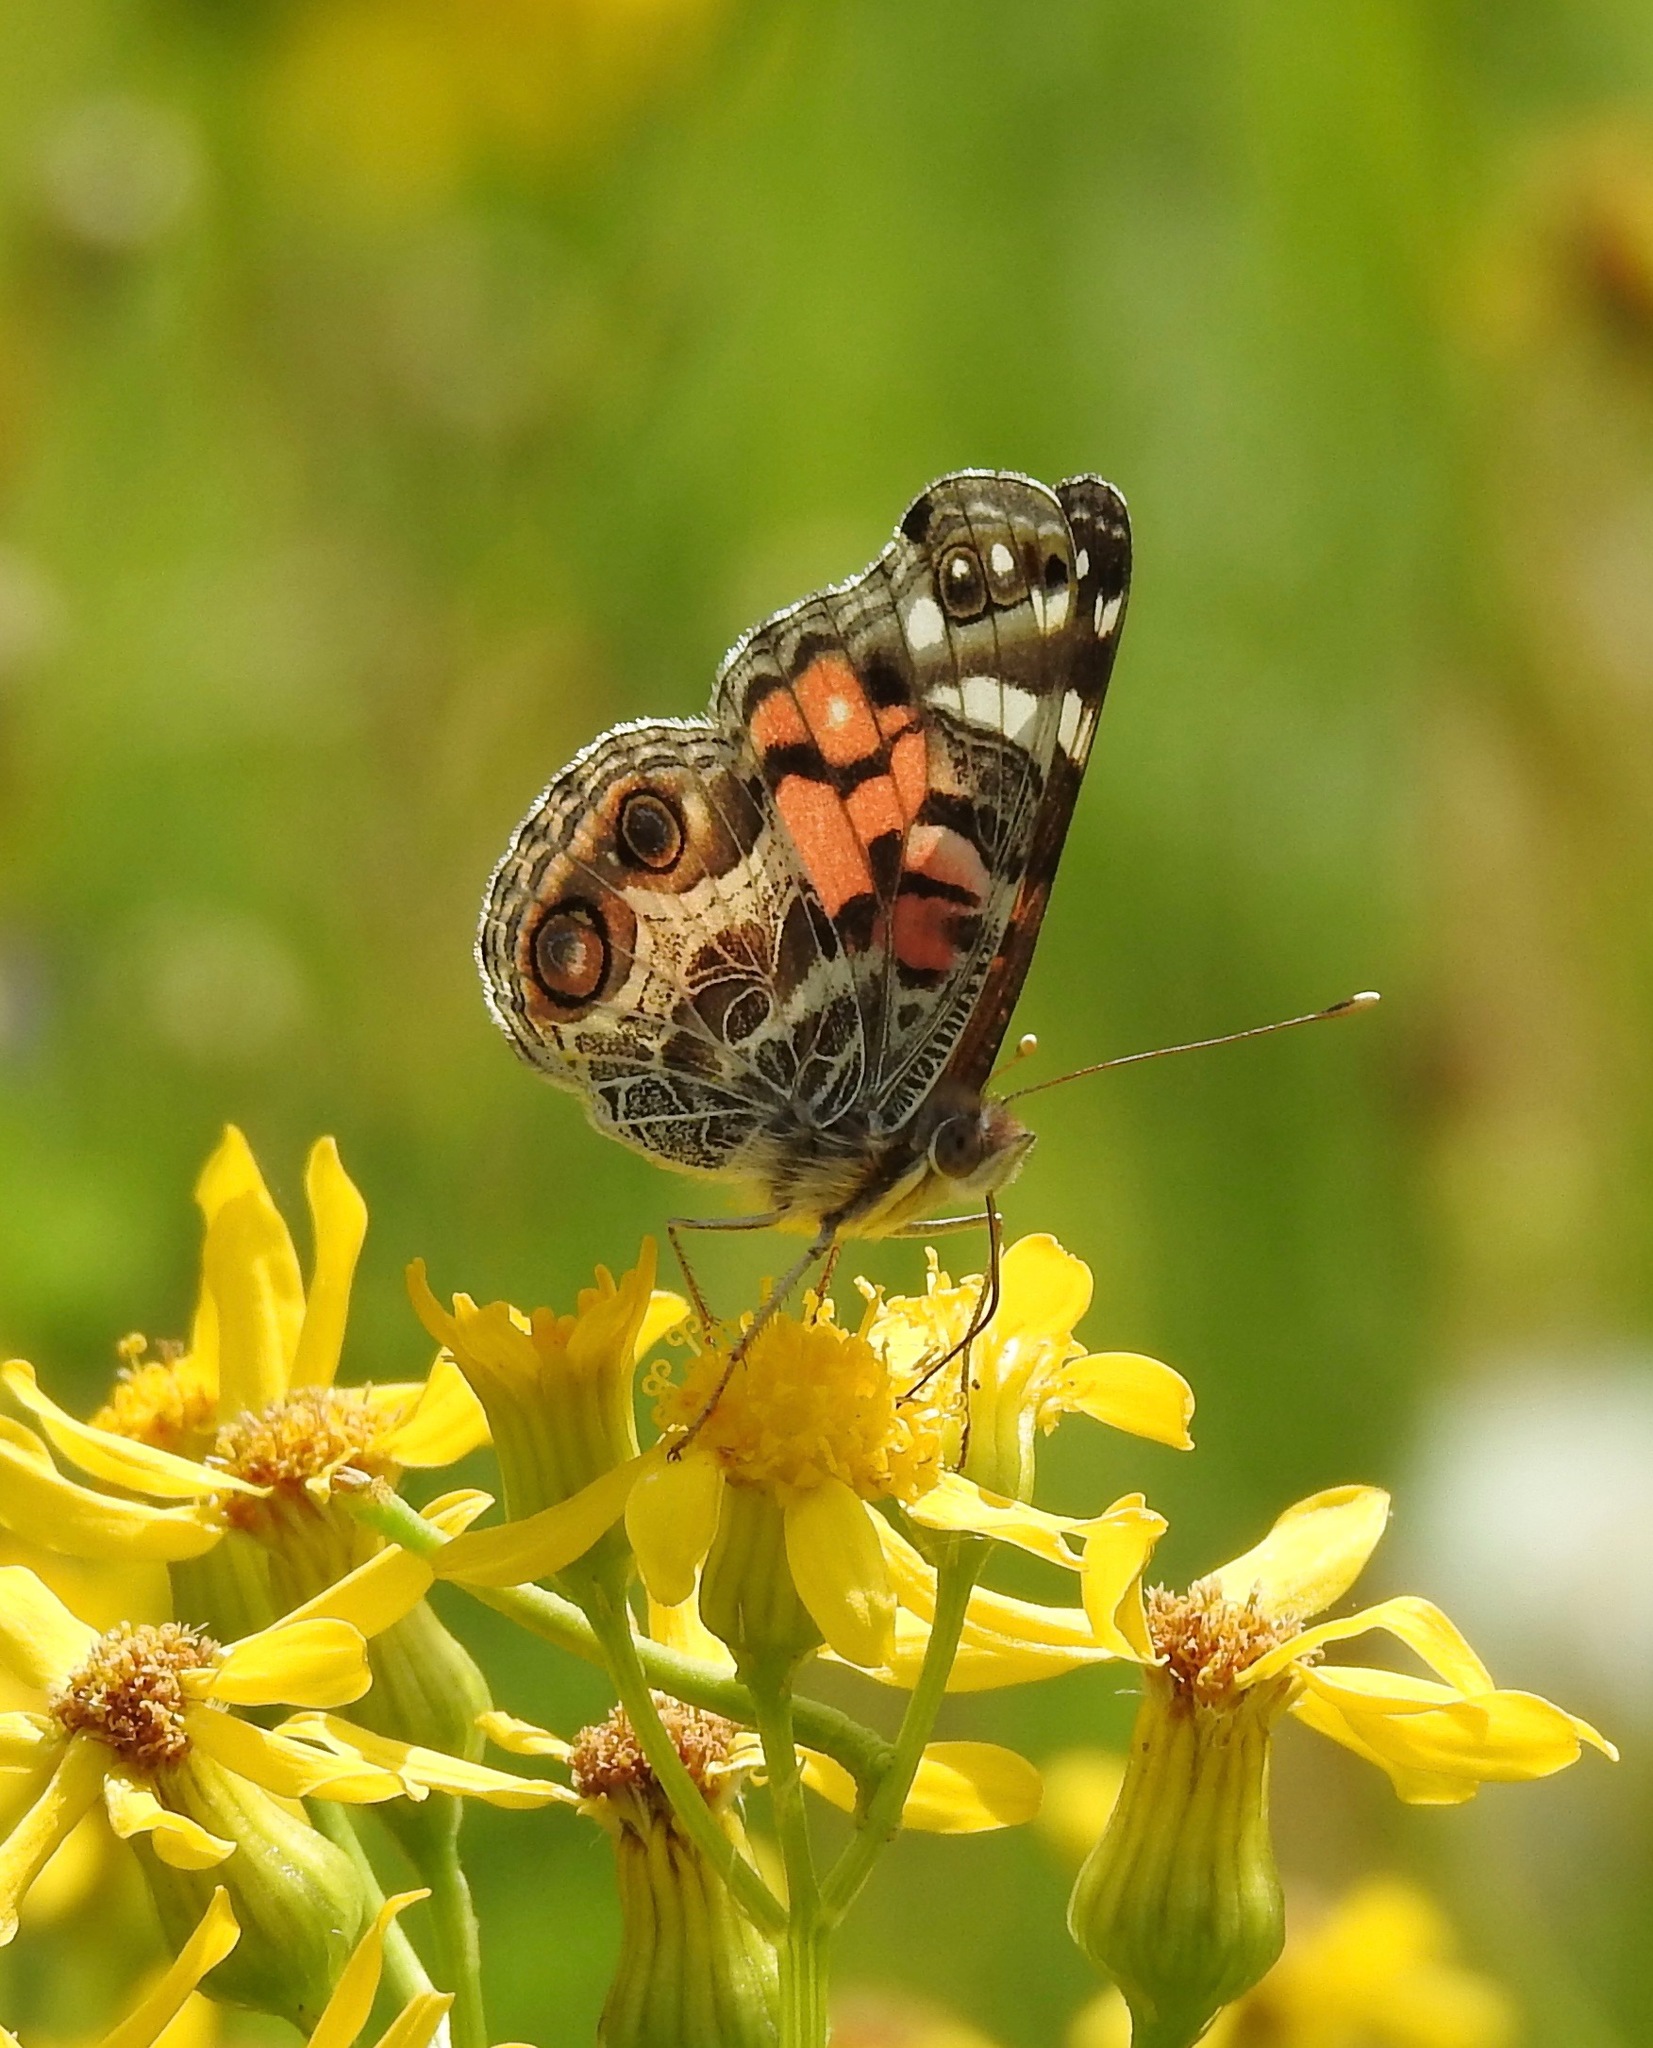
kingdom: Animalia
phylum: Arthropoda
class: Insecta
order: Lepidoptera
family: Nymphalidae
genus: Vanessa
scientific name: Vanessa virginiensis
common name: American lady
